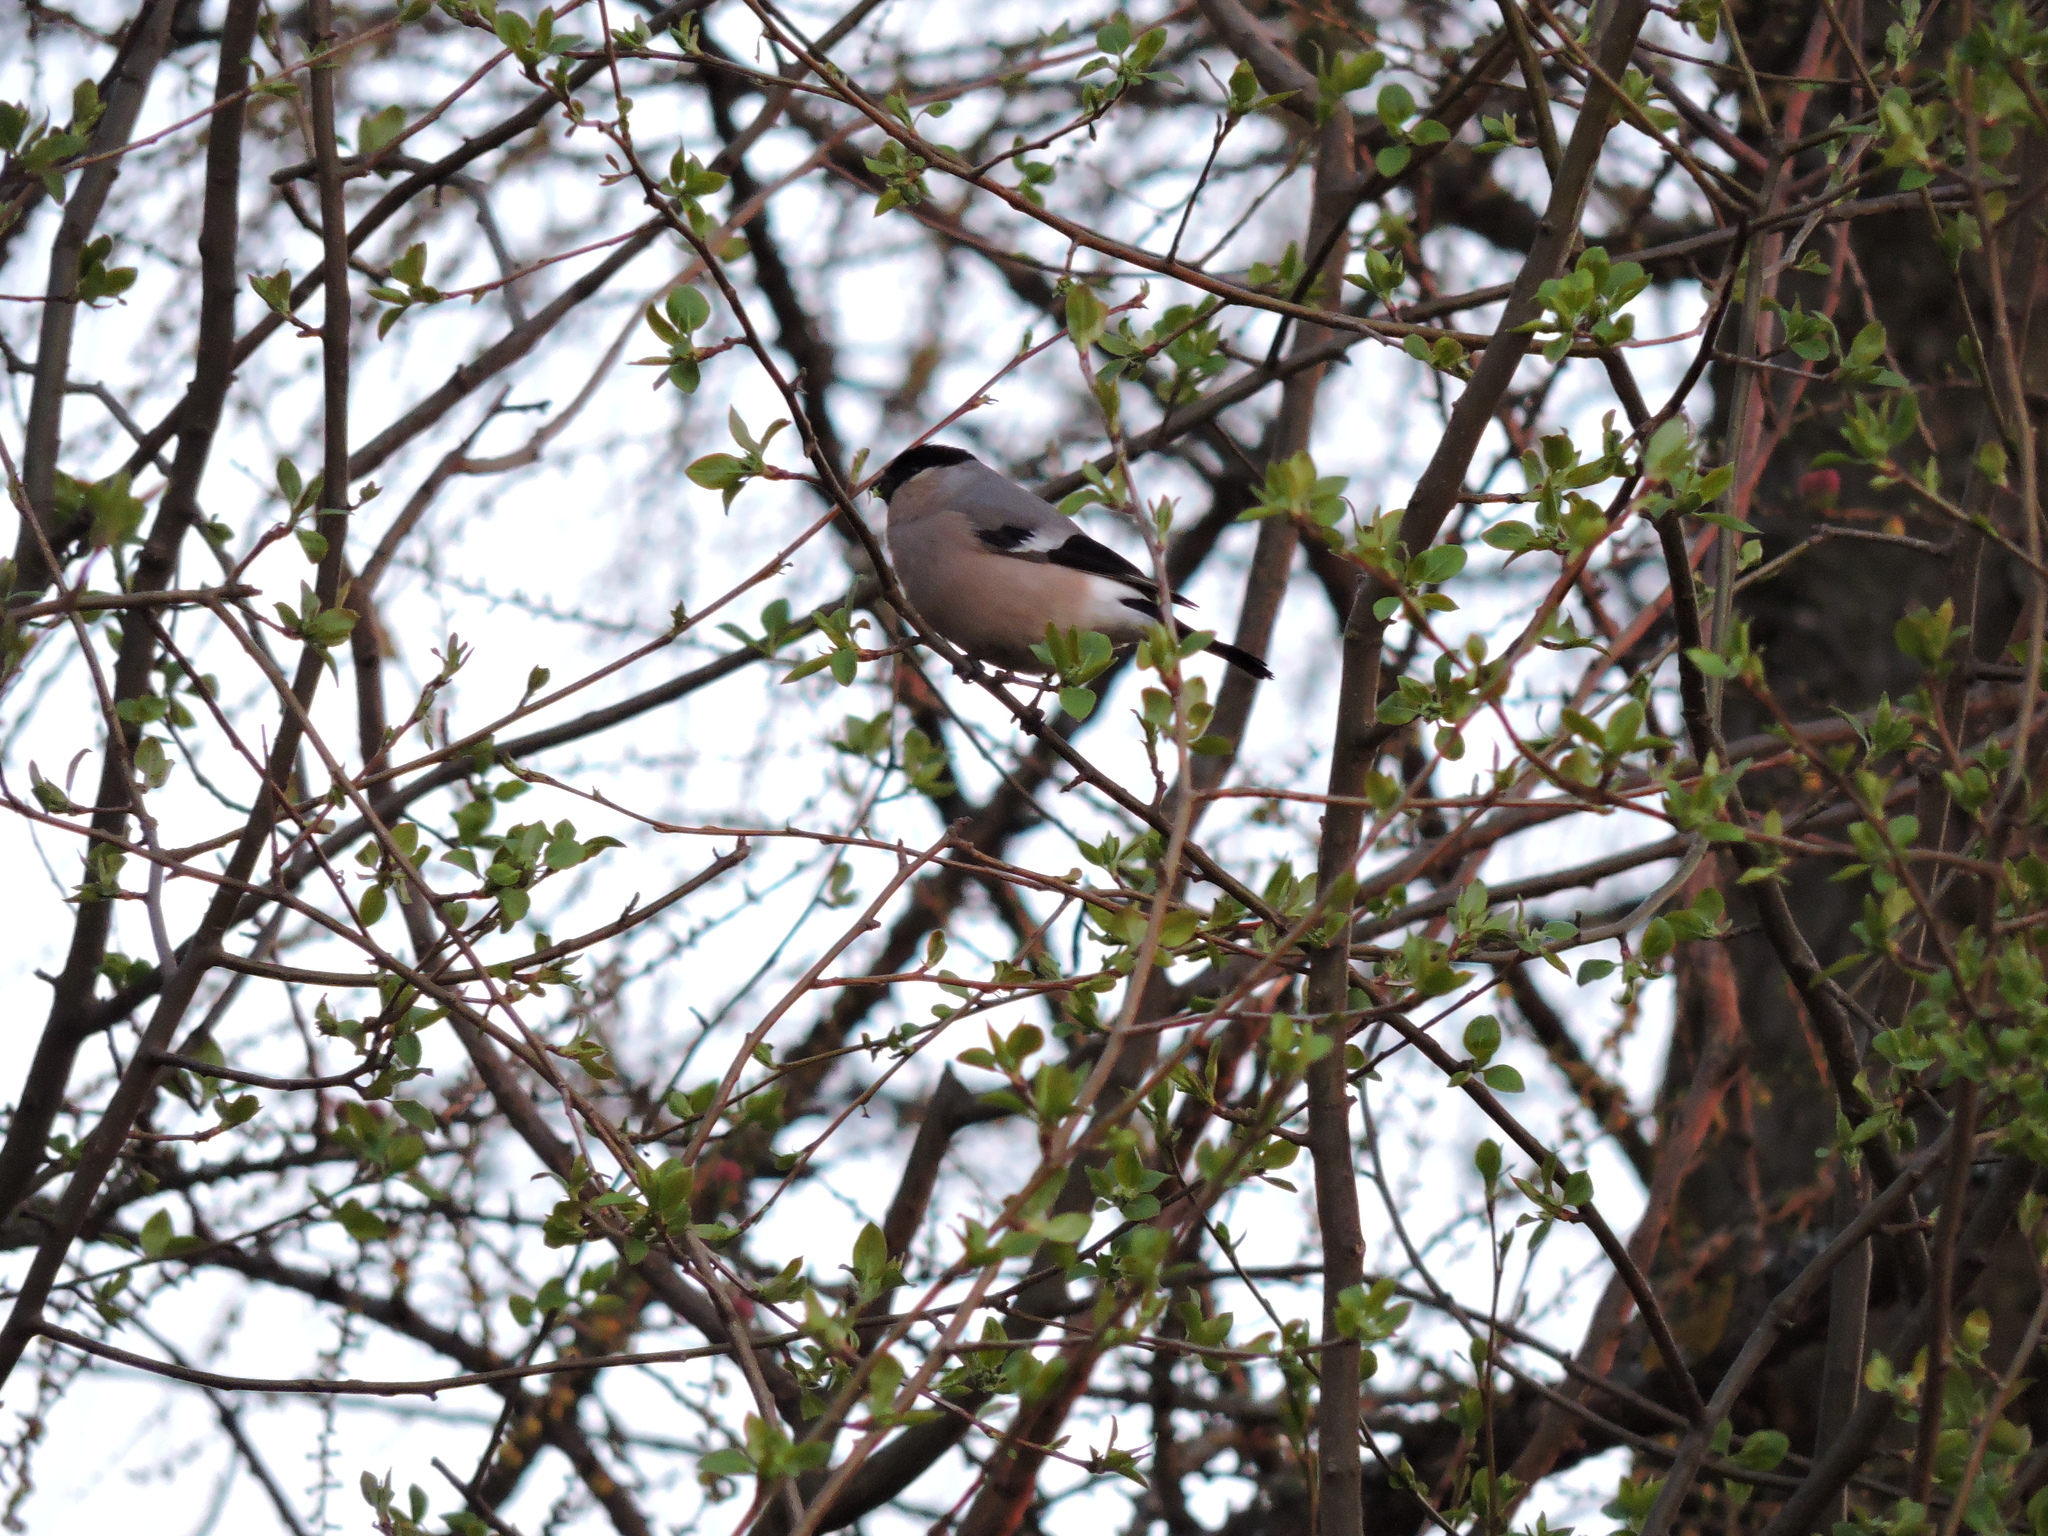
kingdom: Animalia
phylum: Chordata
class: Aves
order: Passeriformes
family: Fringillidae
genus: Pyrrhula
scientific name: Pyrrhula pyrrhula
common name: Eurasian bullfinch
